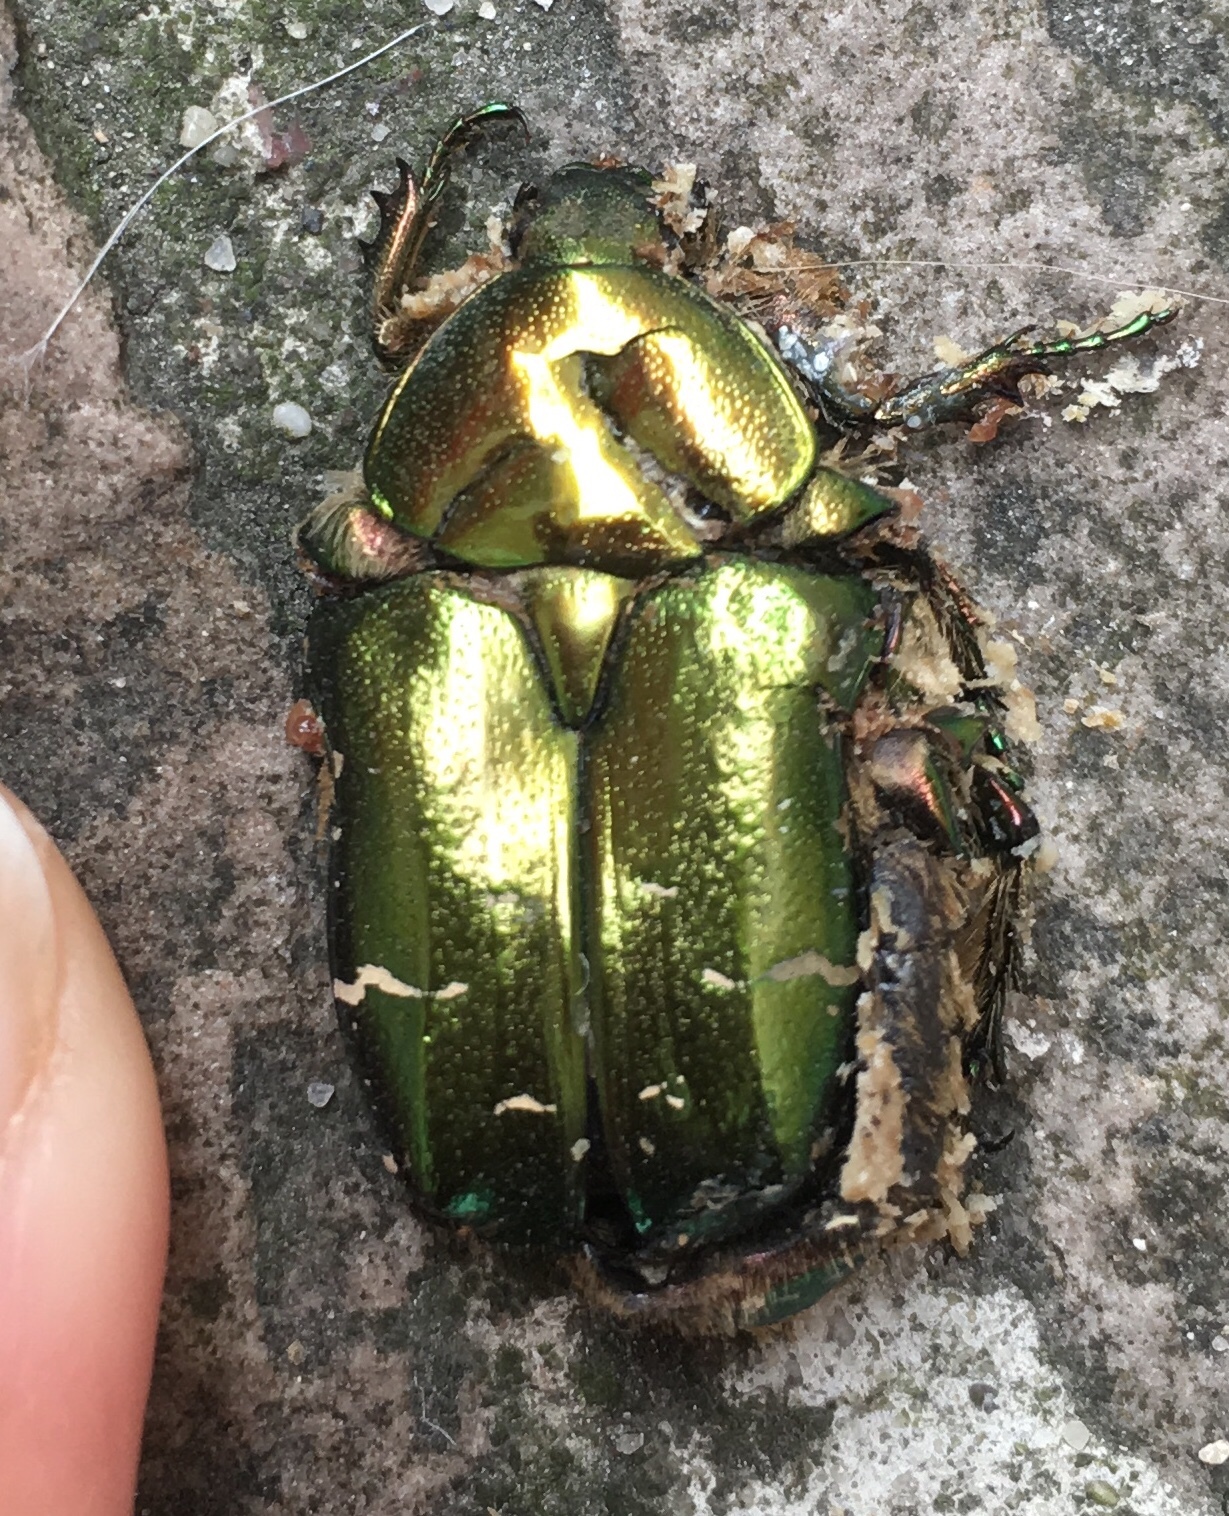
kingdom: Animalia
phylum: Arthropoda
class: Insecta
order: Coleoptera
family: Scarabaeidae
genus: Cetonia
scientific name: Cetonia aurata
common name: Rose chafer
